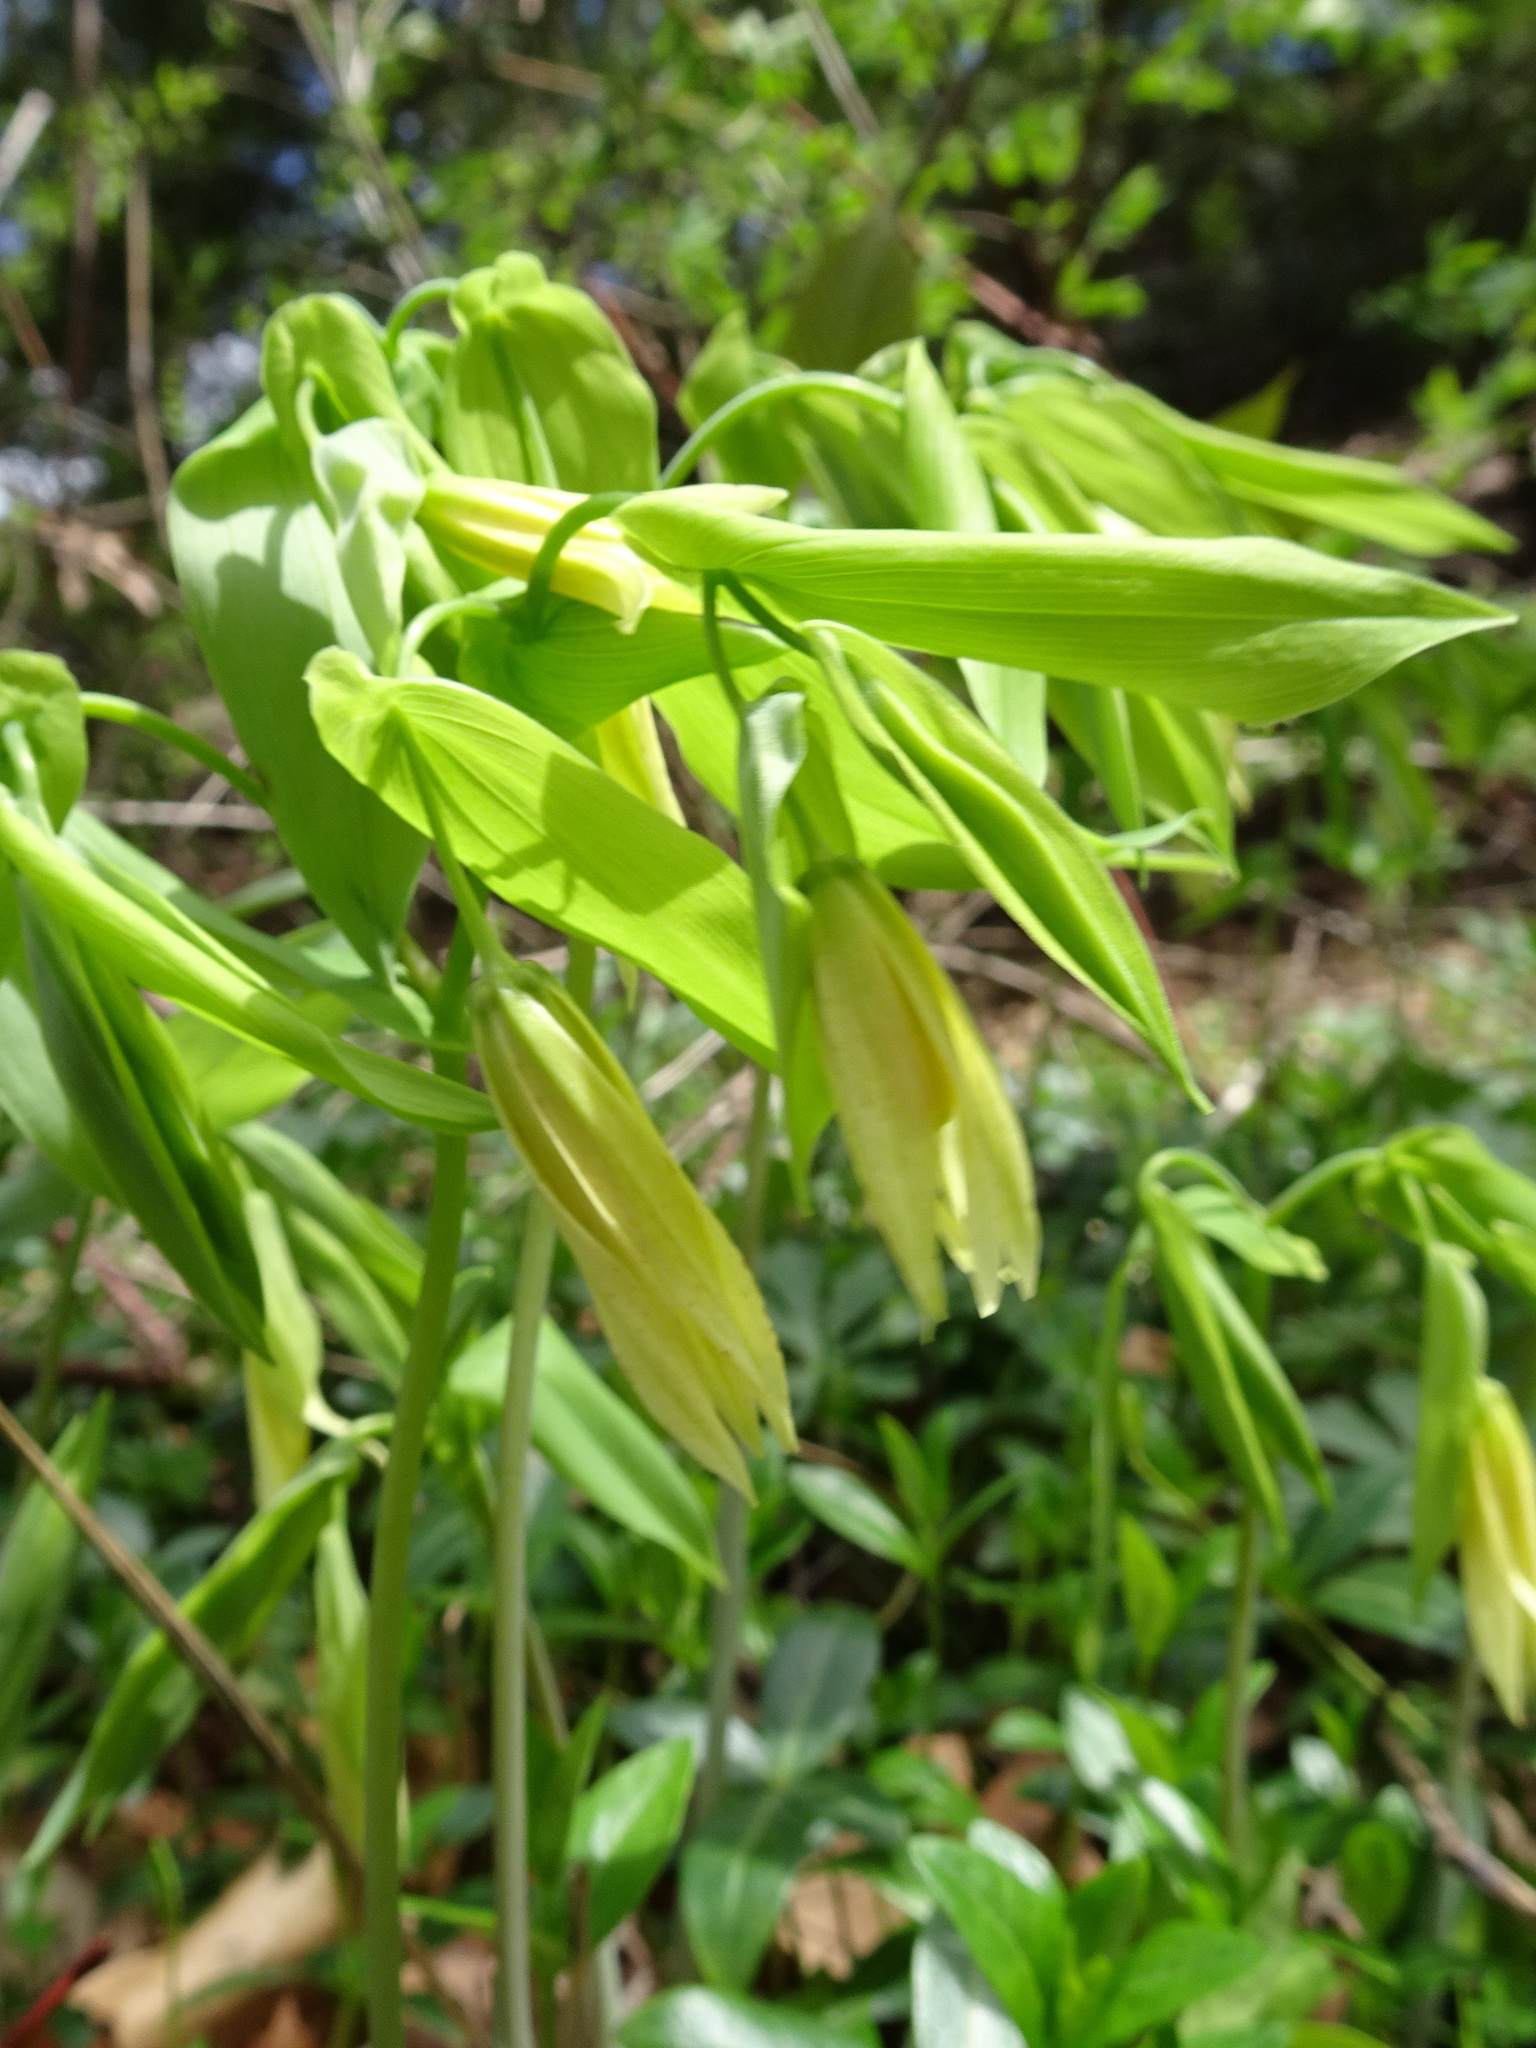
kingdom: Plantae
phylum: Tracheophyta
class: Liliopsida
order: Liliales
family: Colchicaceae
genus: Uvularia
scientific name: Uvularia grandiflora
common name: Bellwort
